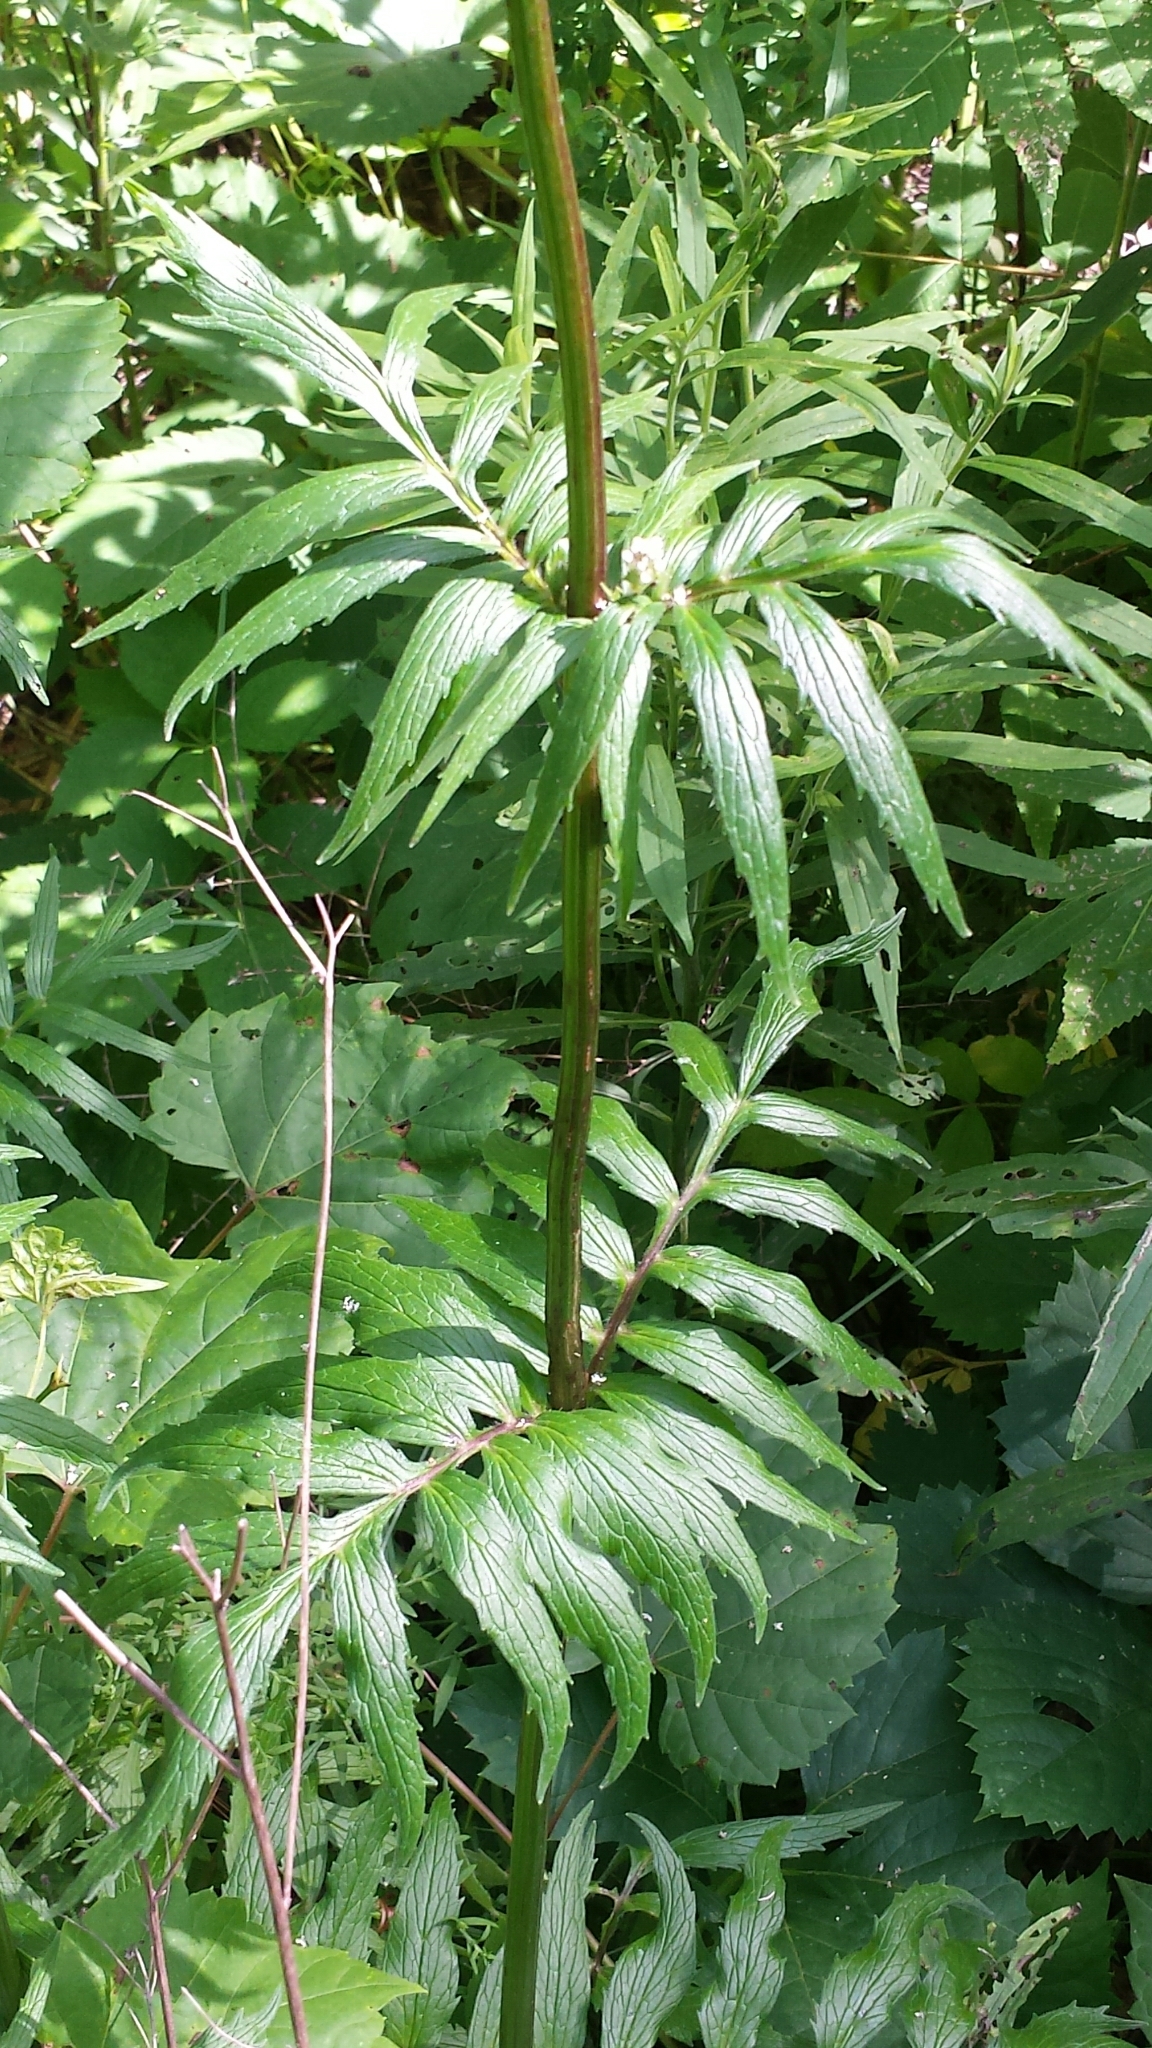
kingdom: Plantae
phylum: Tracheophyta
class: Magnoliopsida
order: Dipsacales
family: Caprifoliaceae
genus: Valeriana
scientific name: Valeriana officinalis
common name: Common valerian
